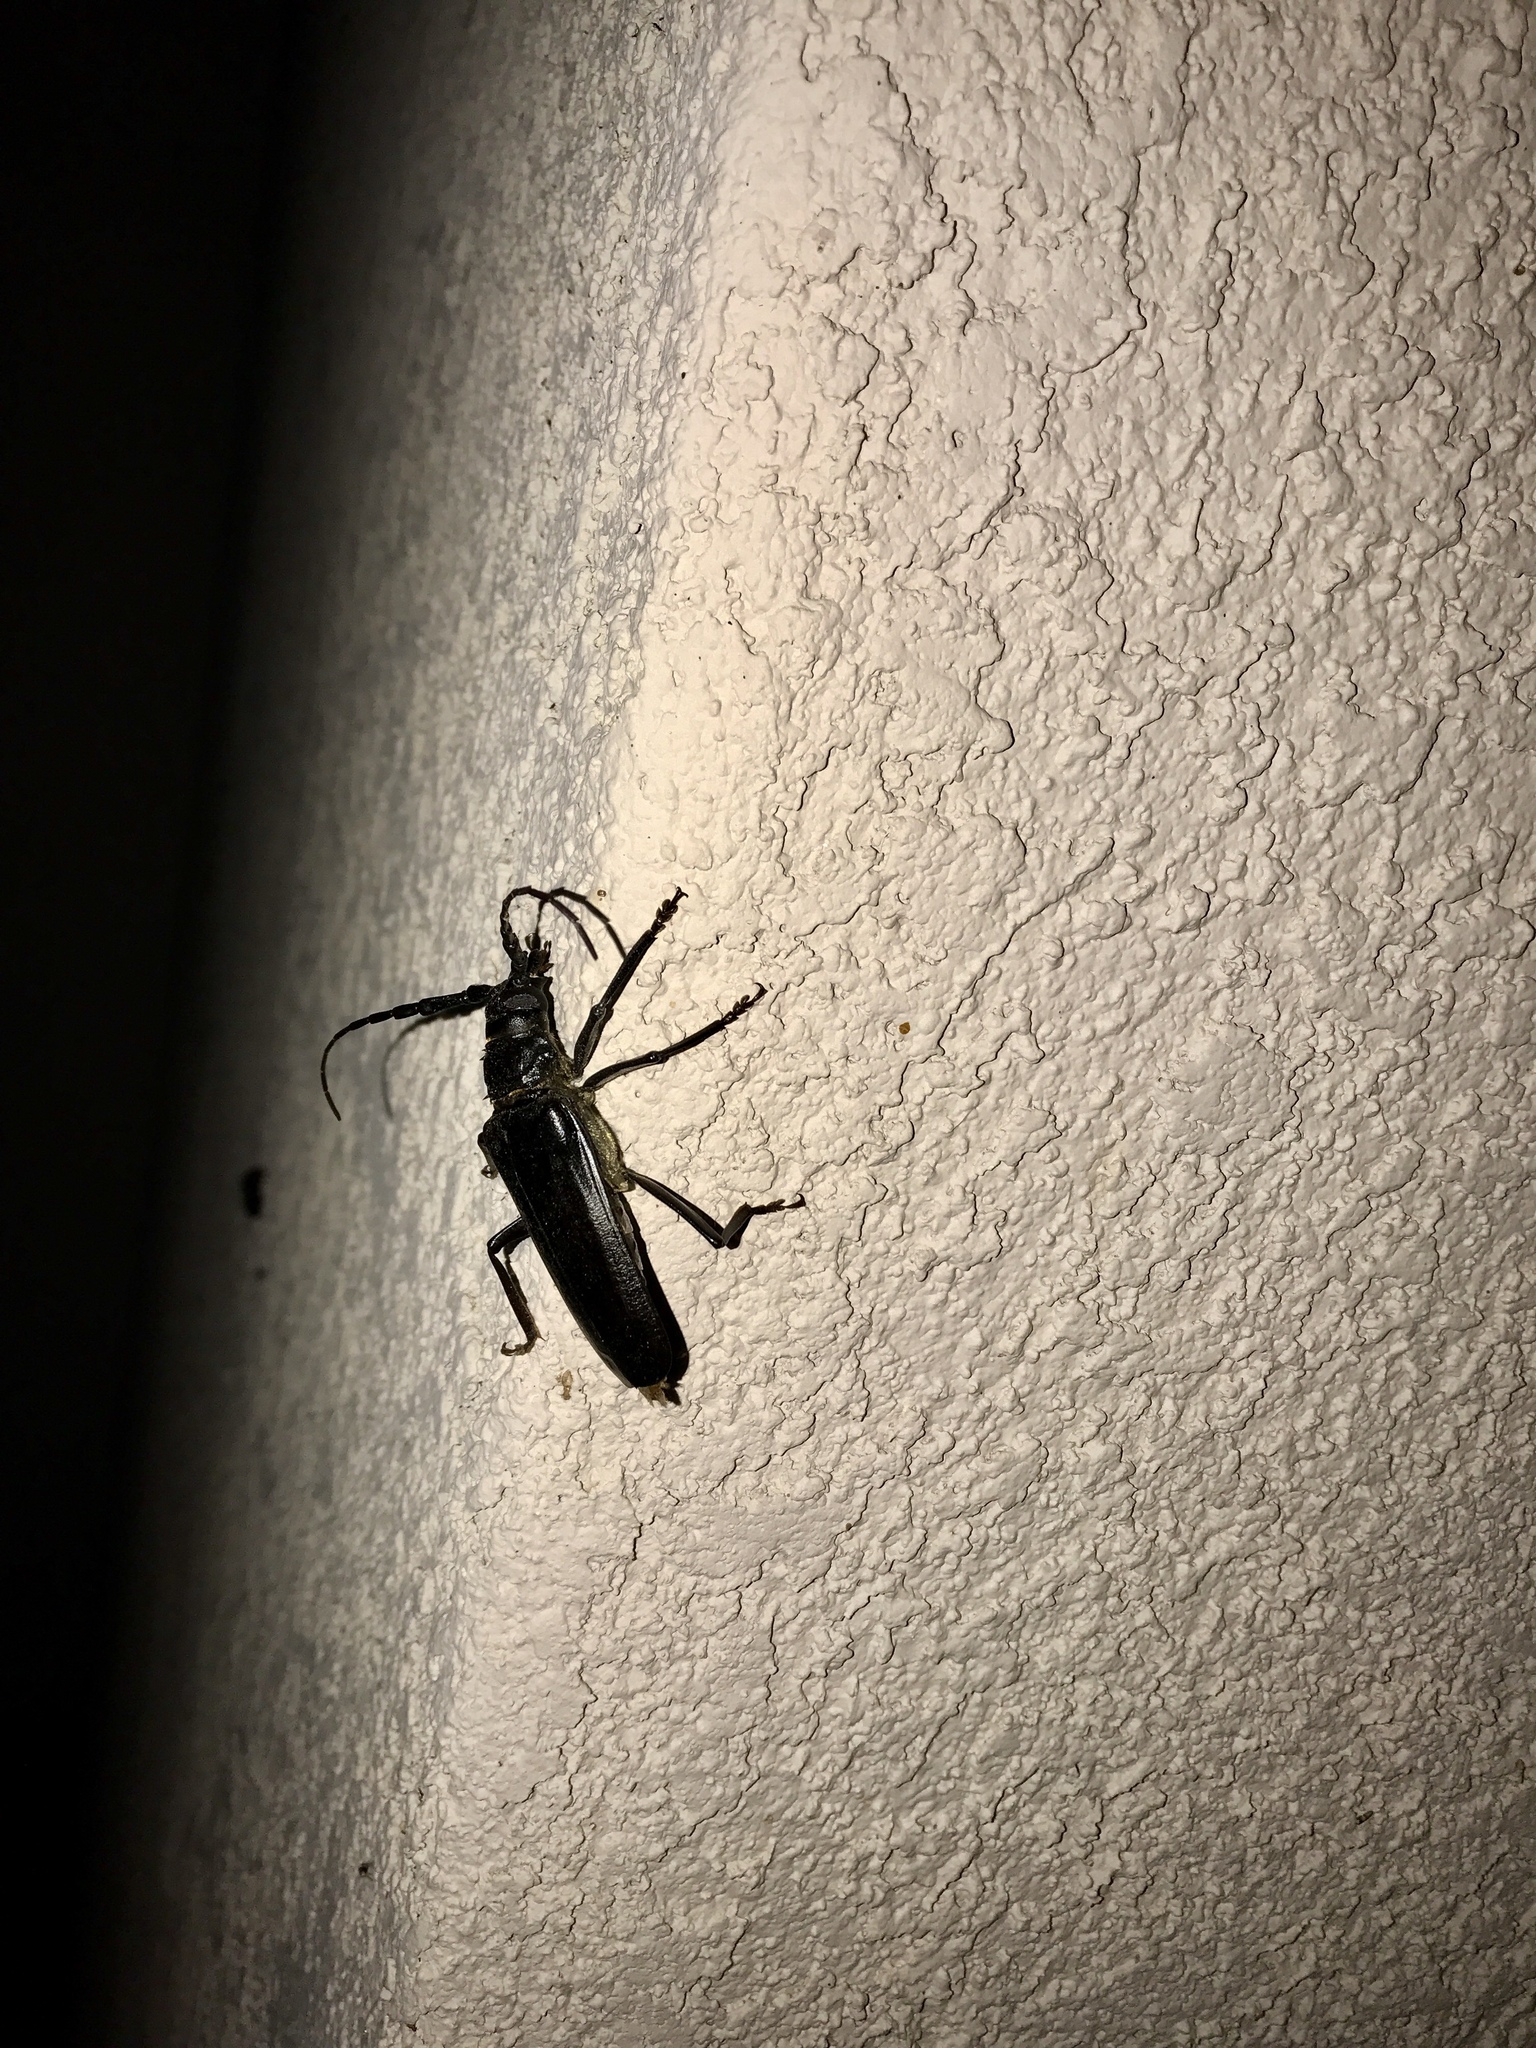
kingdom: Animalia
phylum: Arthropoda
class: Insecta
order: Coleoptera
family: Cerambycidae
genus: Derobrachus
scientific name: Derobrachus hovorei
